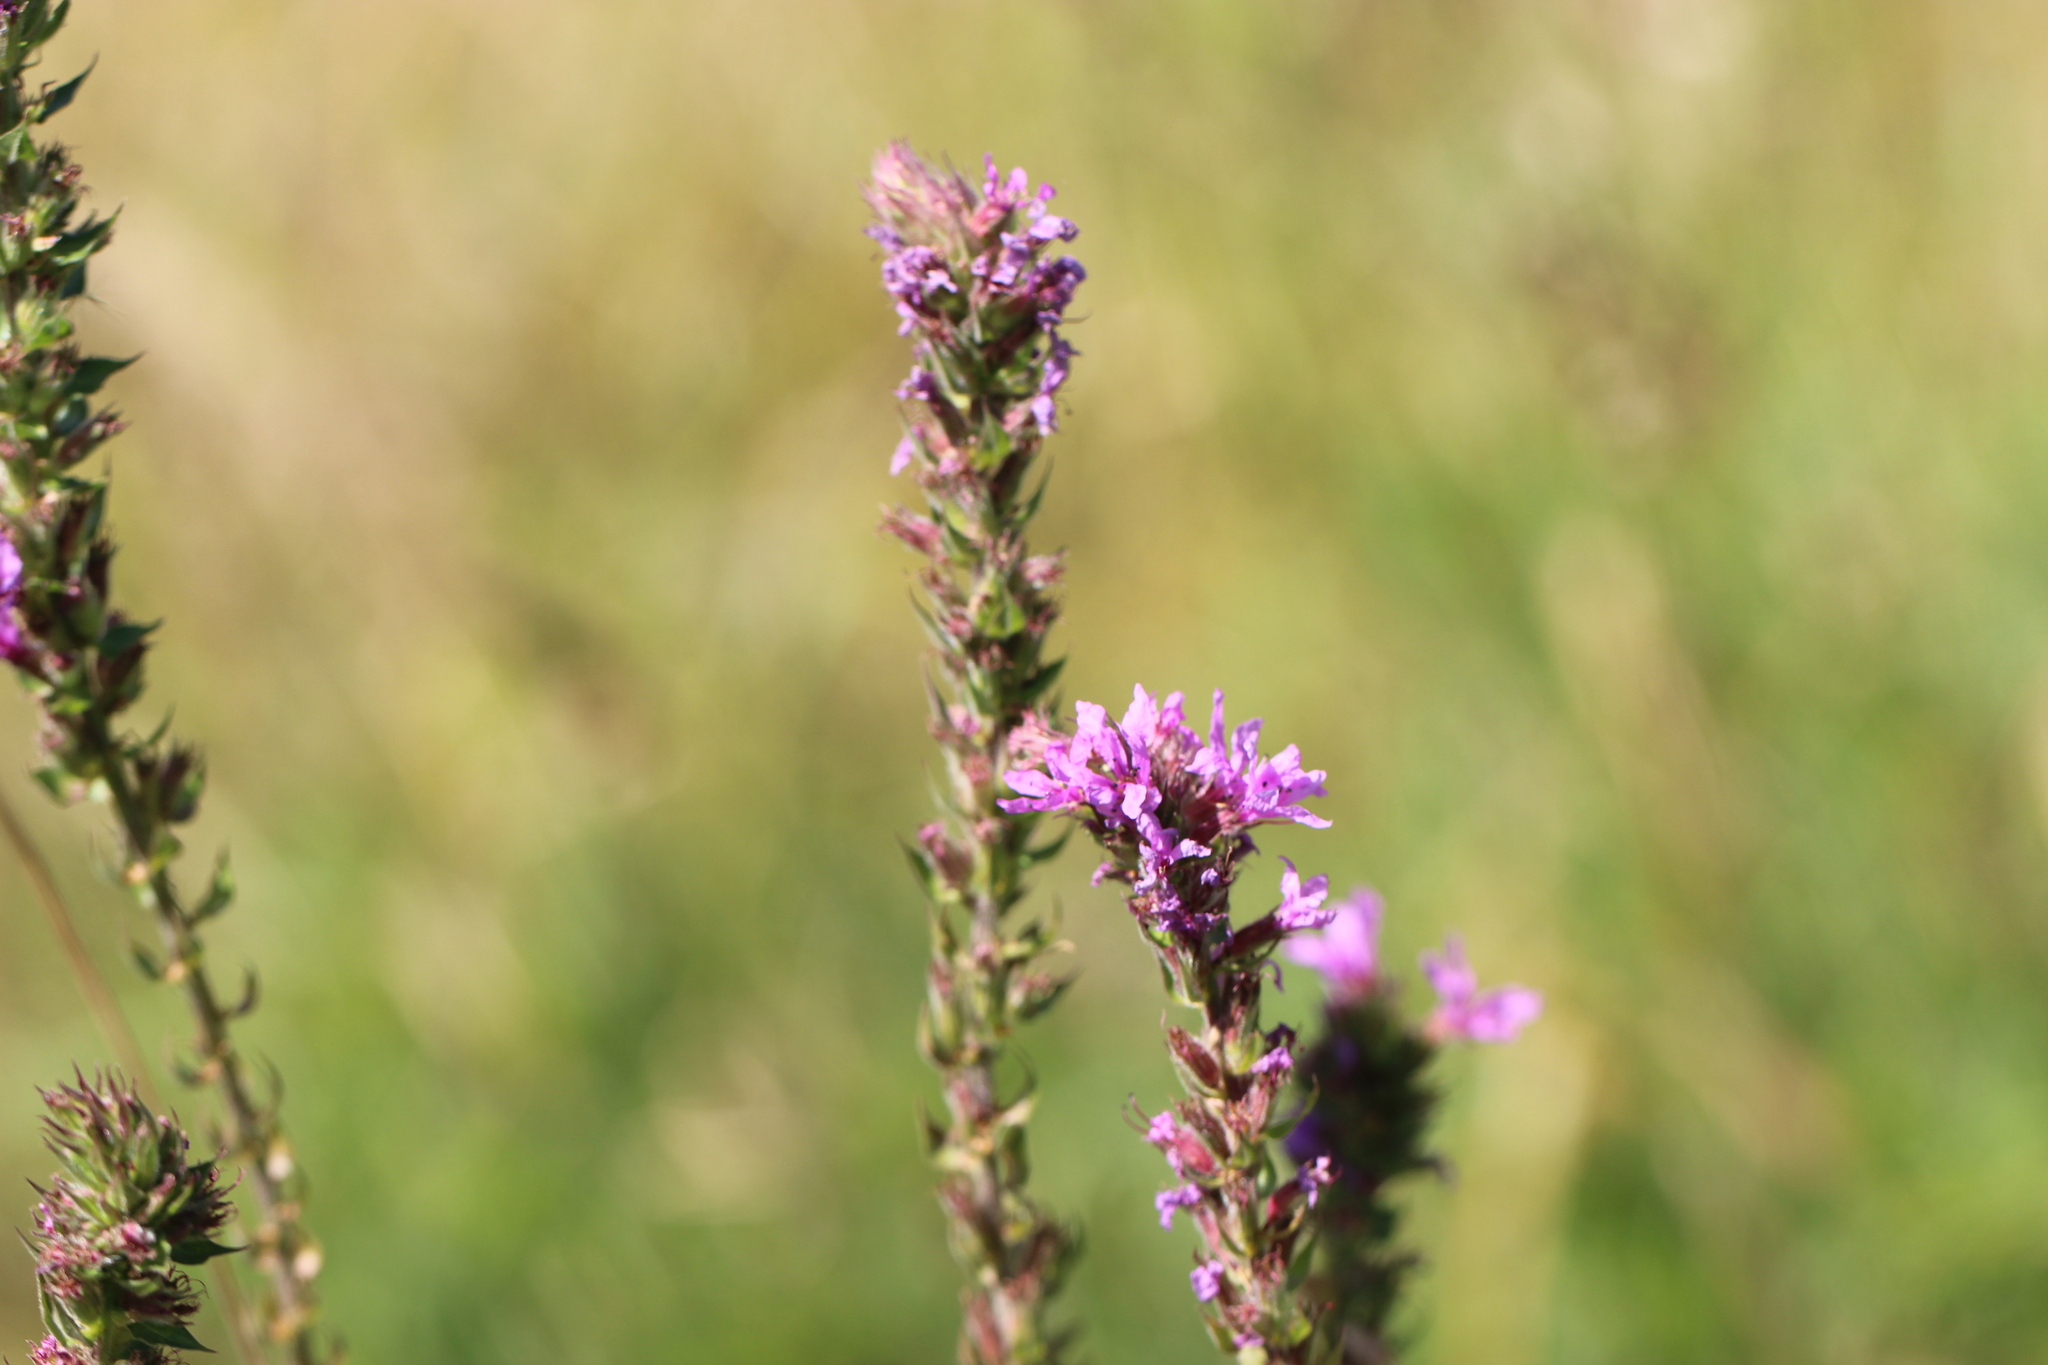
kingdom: Plantae
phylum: Tracheophyta
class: Magnoliopsida
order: Myrtales
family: Lythraceae
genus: Lythrum
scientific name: Lythrum salicaria
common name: Purple loosestrife
